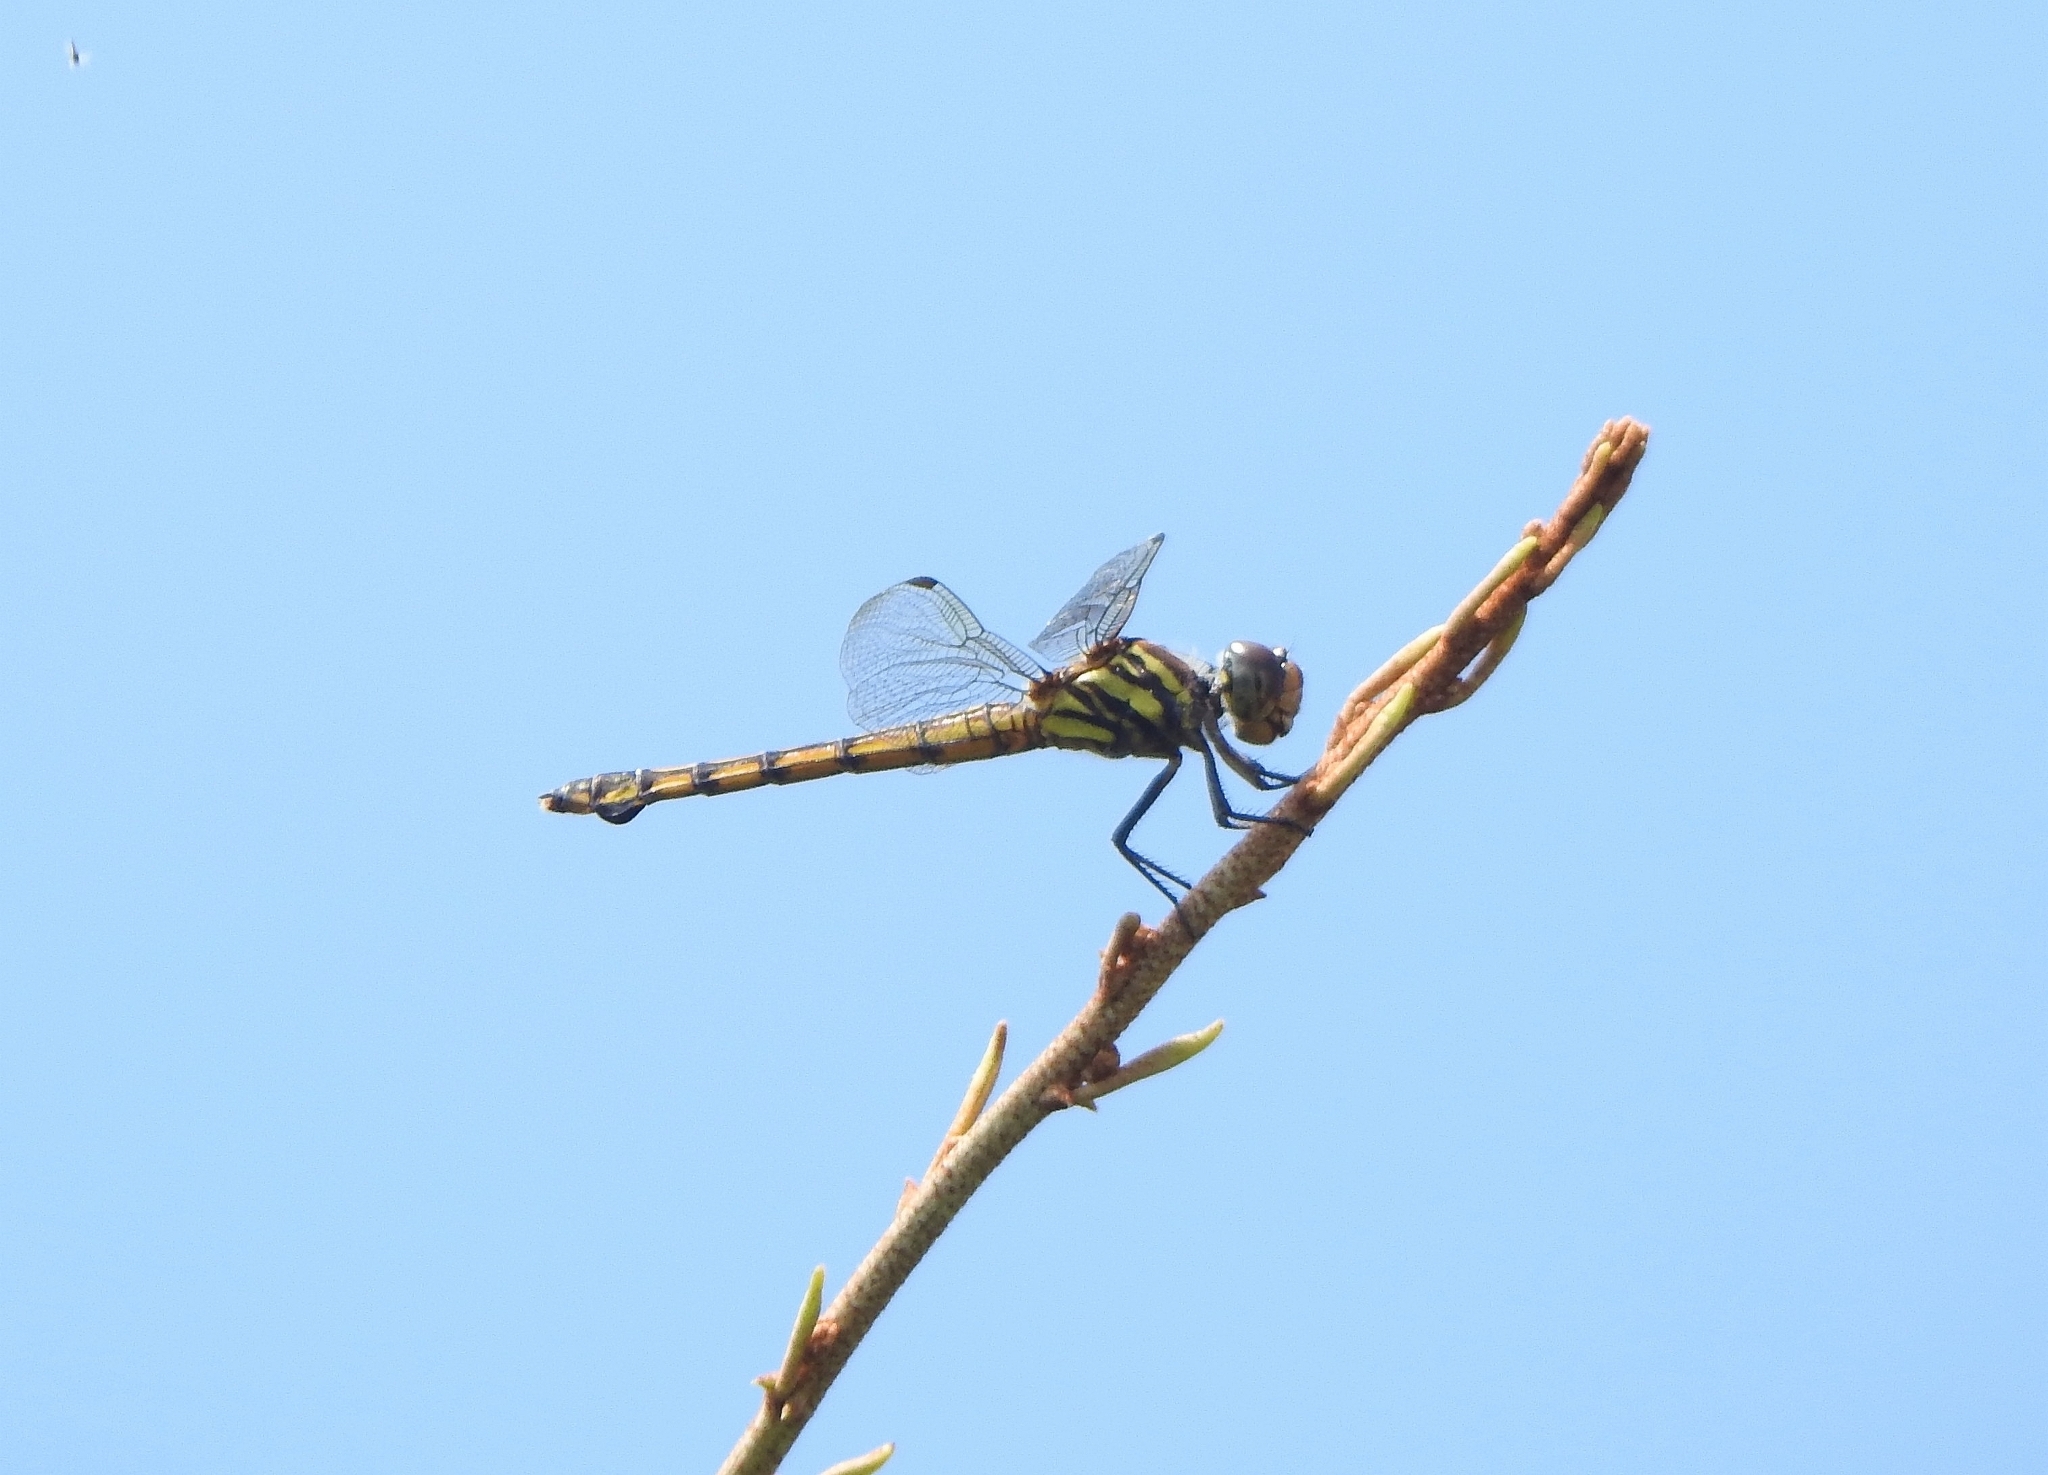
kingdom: Animalia
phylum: Arthropoda
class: Insecta
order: Odonata
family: Libellulidae
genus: Potamarcha
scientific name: Potamarcha congener
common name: Blue chaser
